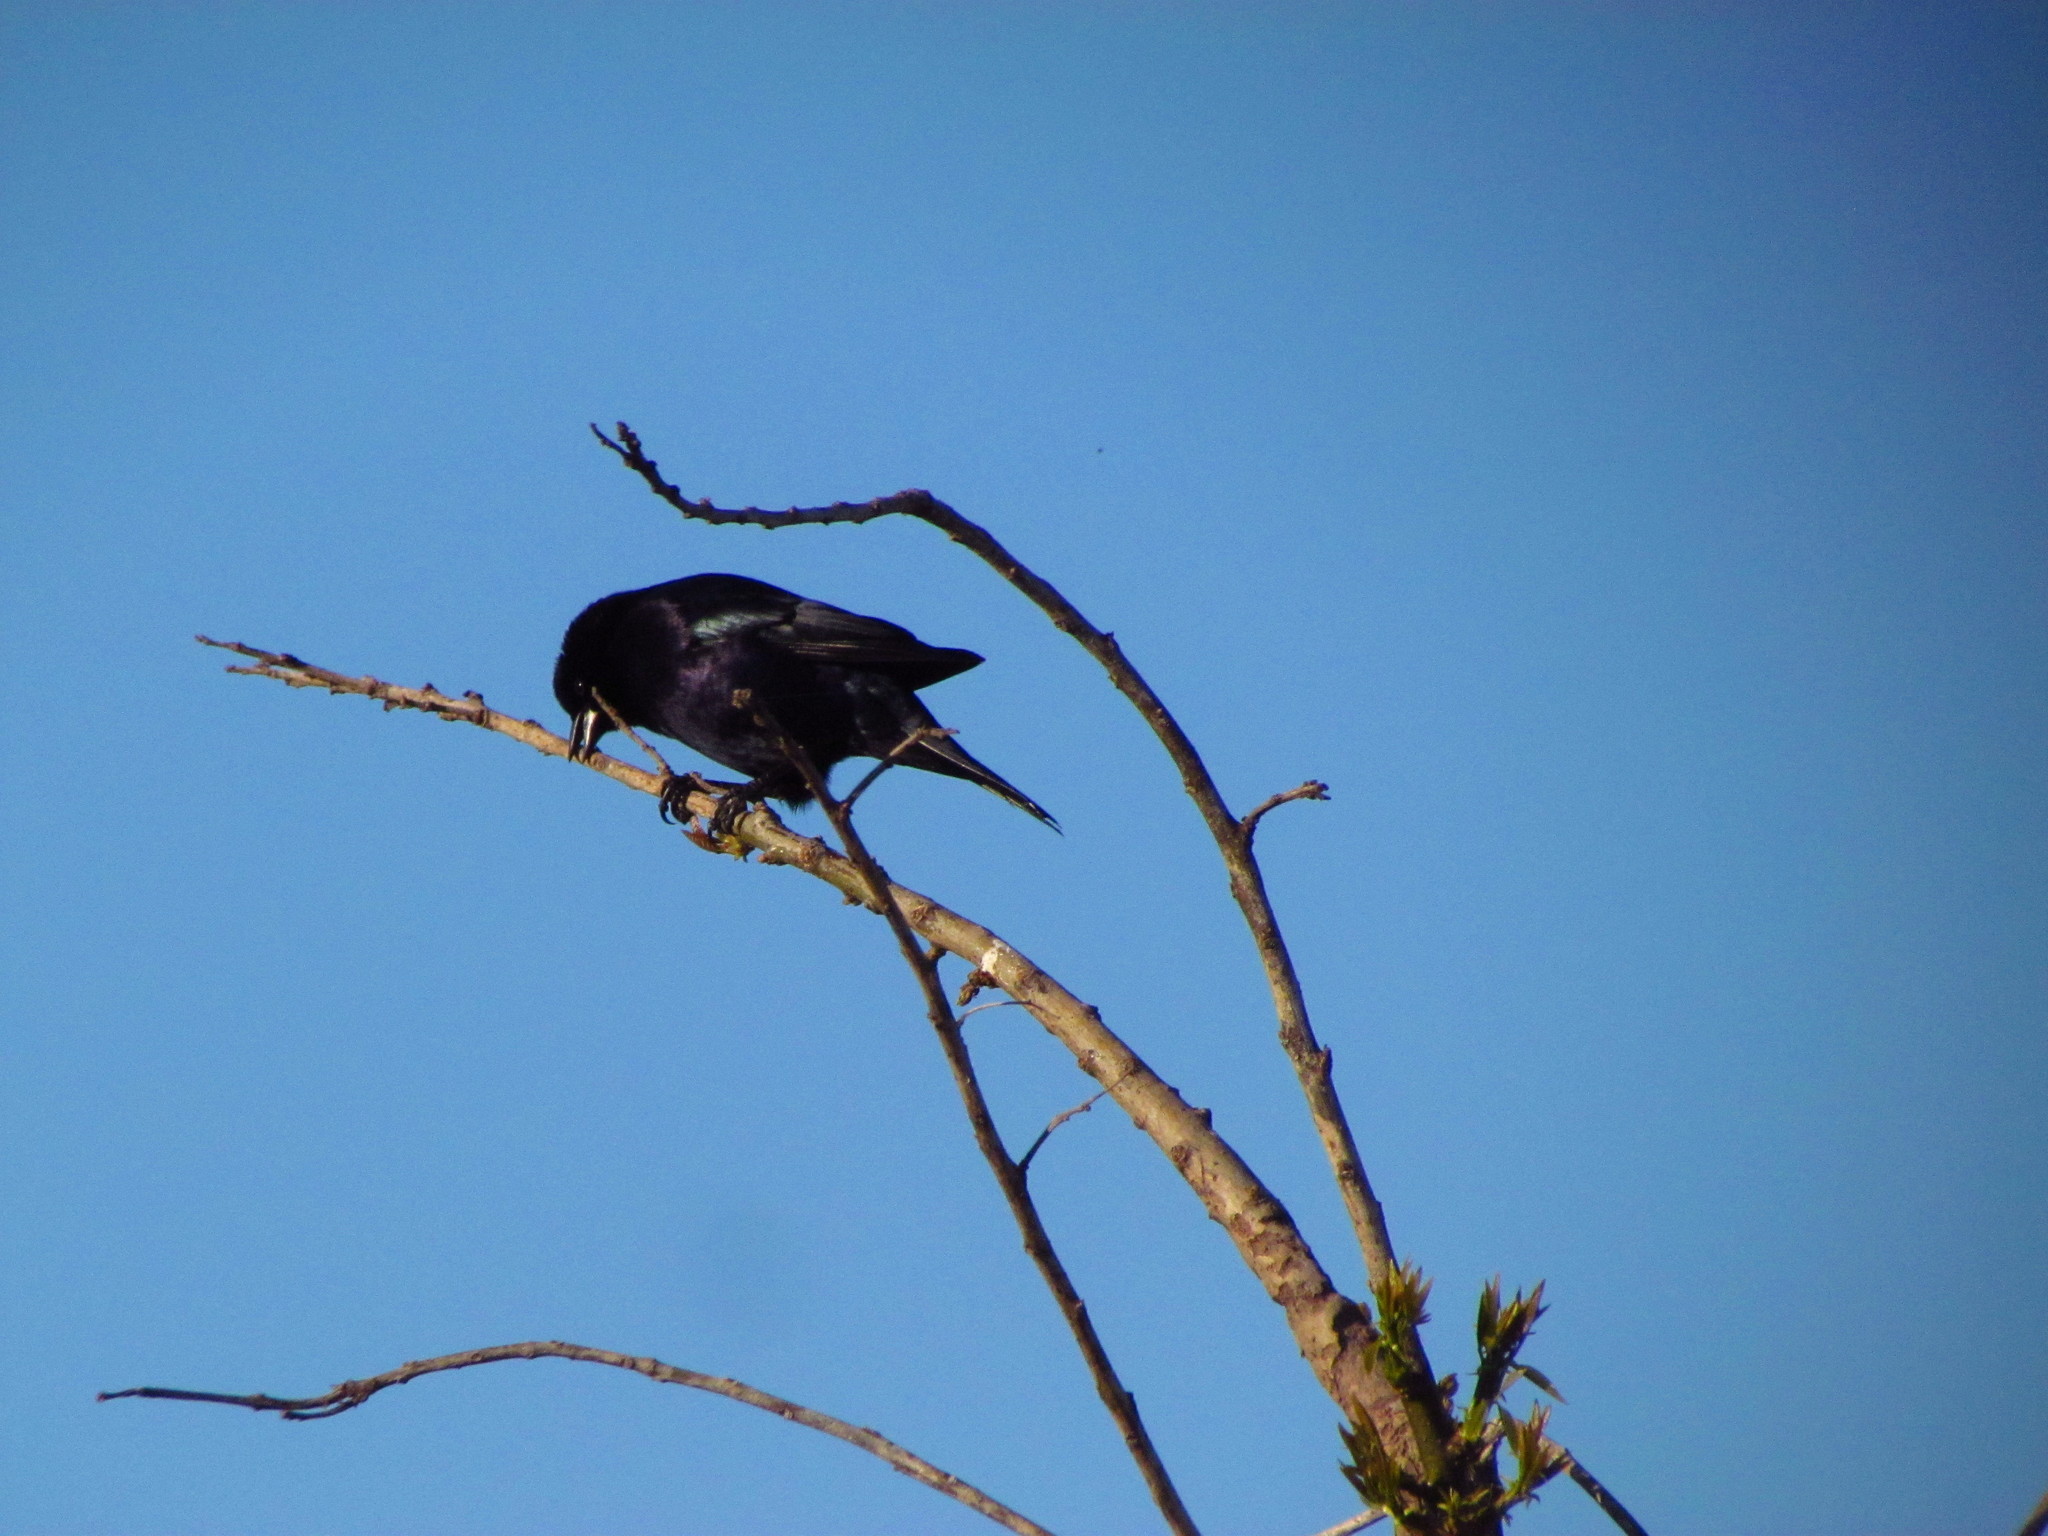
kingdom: Animalia
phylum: Chordata
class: Aves
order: Passeriformes
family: Icteridae
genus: Molothrus
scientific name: Molothrus bonariensis
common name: Shiny cowbird
